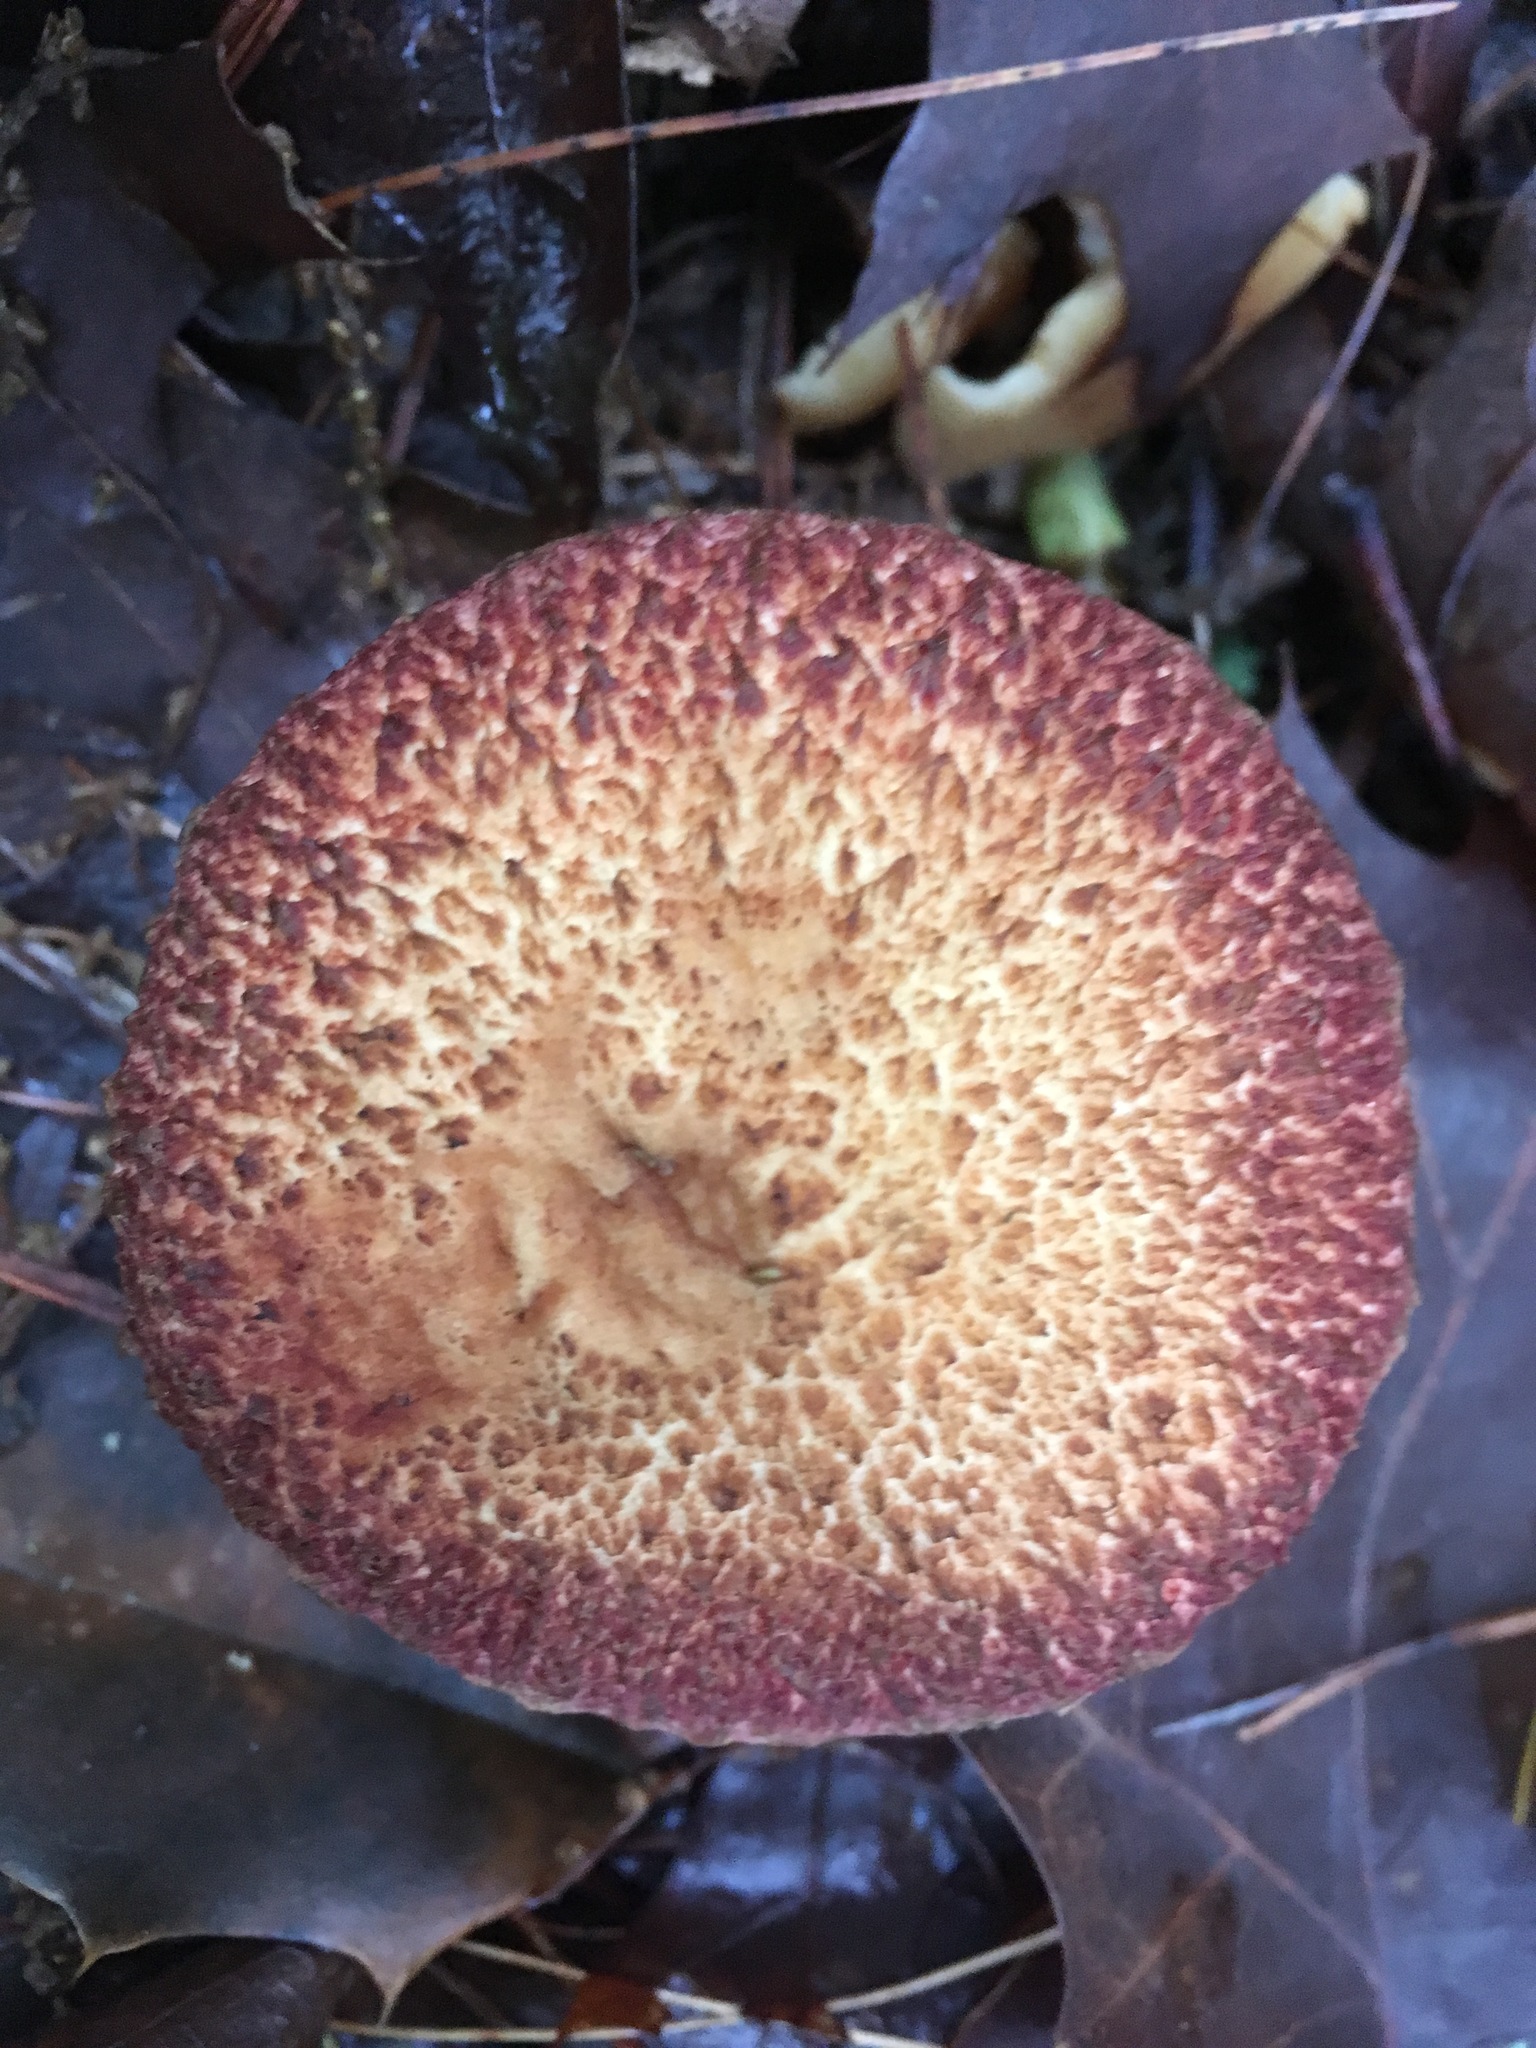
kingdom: Fungi
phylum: Basidiomycota
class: Agaricomycetes
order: Boletales
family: Suillaceae
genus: Suillus
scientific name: Suillus spraguei
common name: Painted suillus
